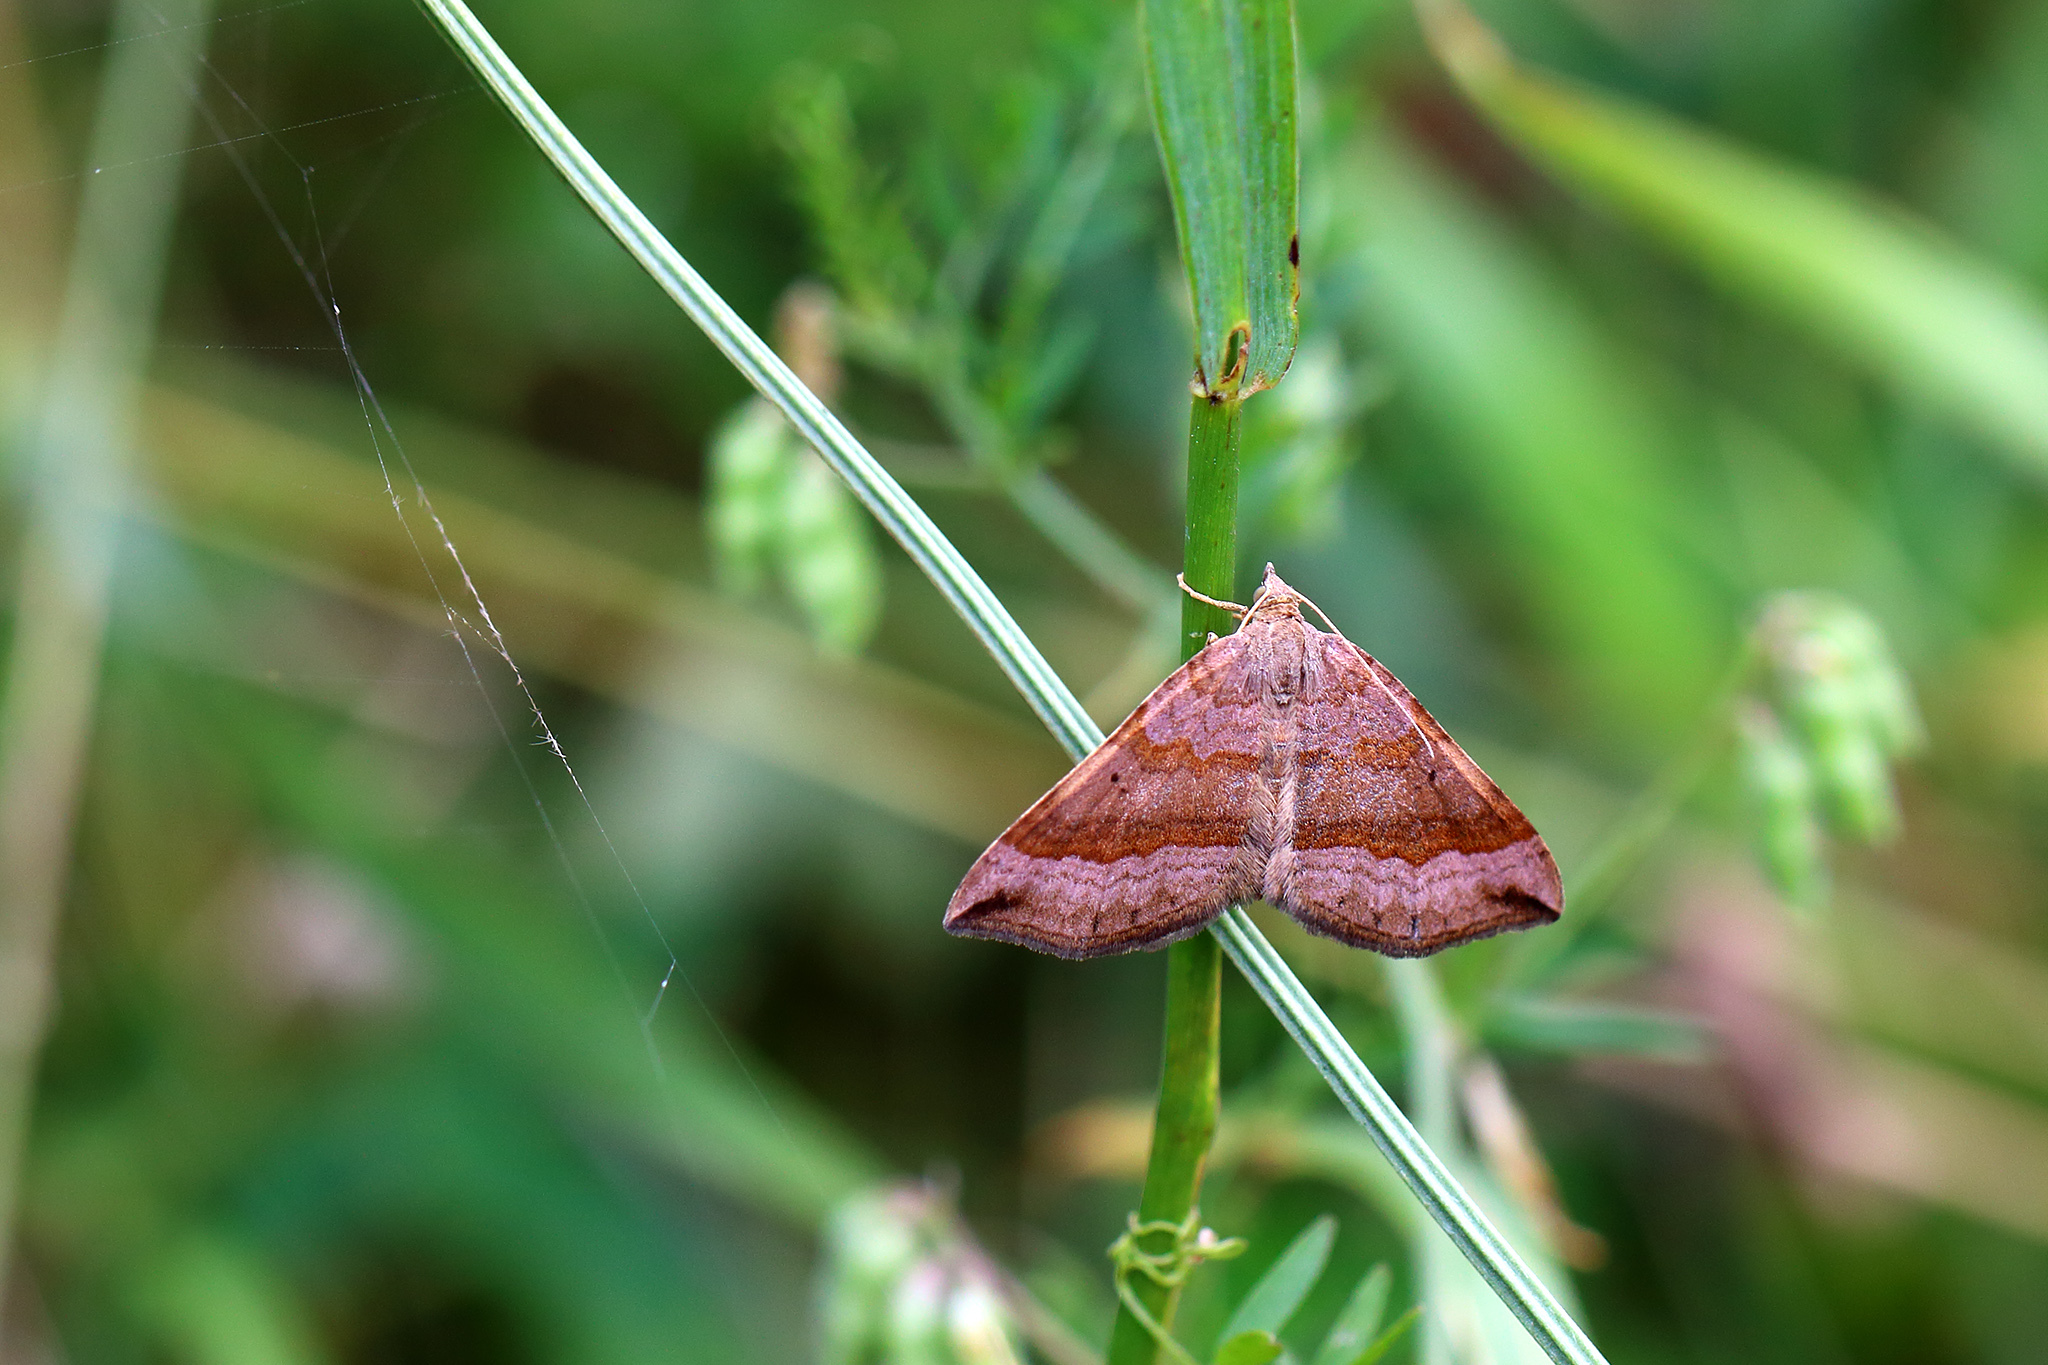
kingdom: Animalia
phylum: Arthropoda
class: Insecta
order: Lepidoptera
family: Geometridae
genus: Scotopteryx
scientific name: Scotopteryx chenopodiata
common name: Shaded broad-bar
